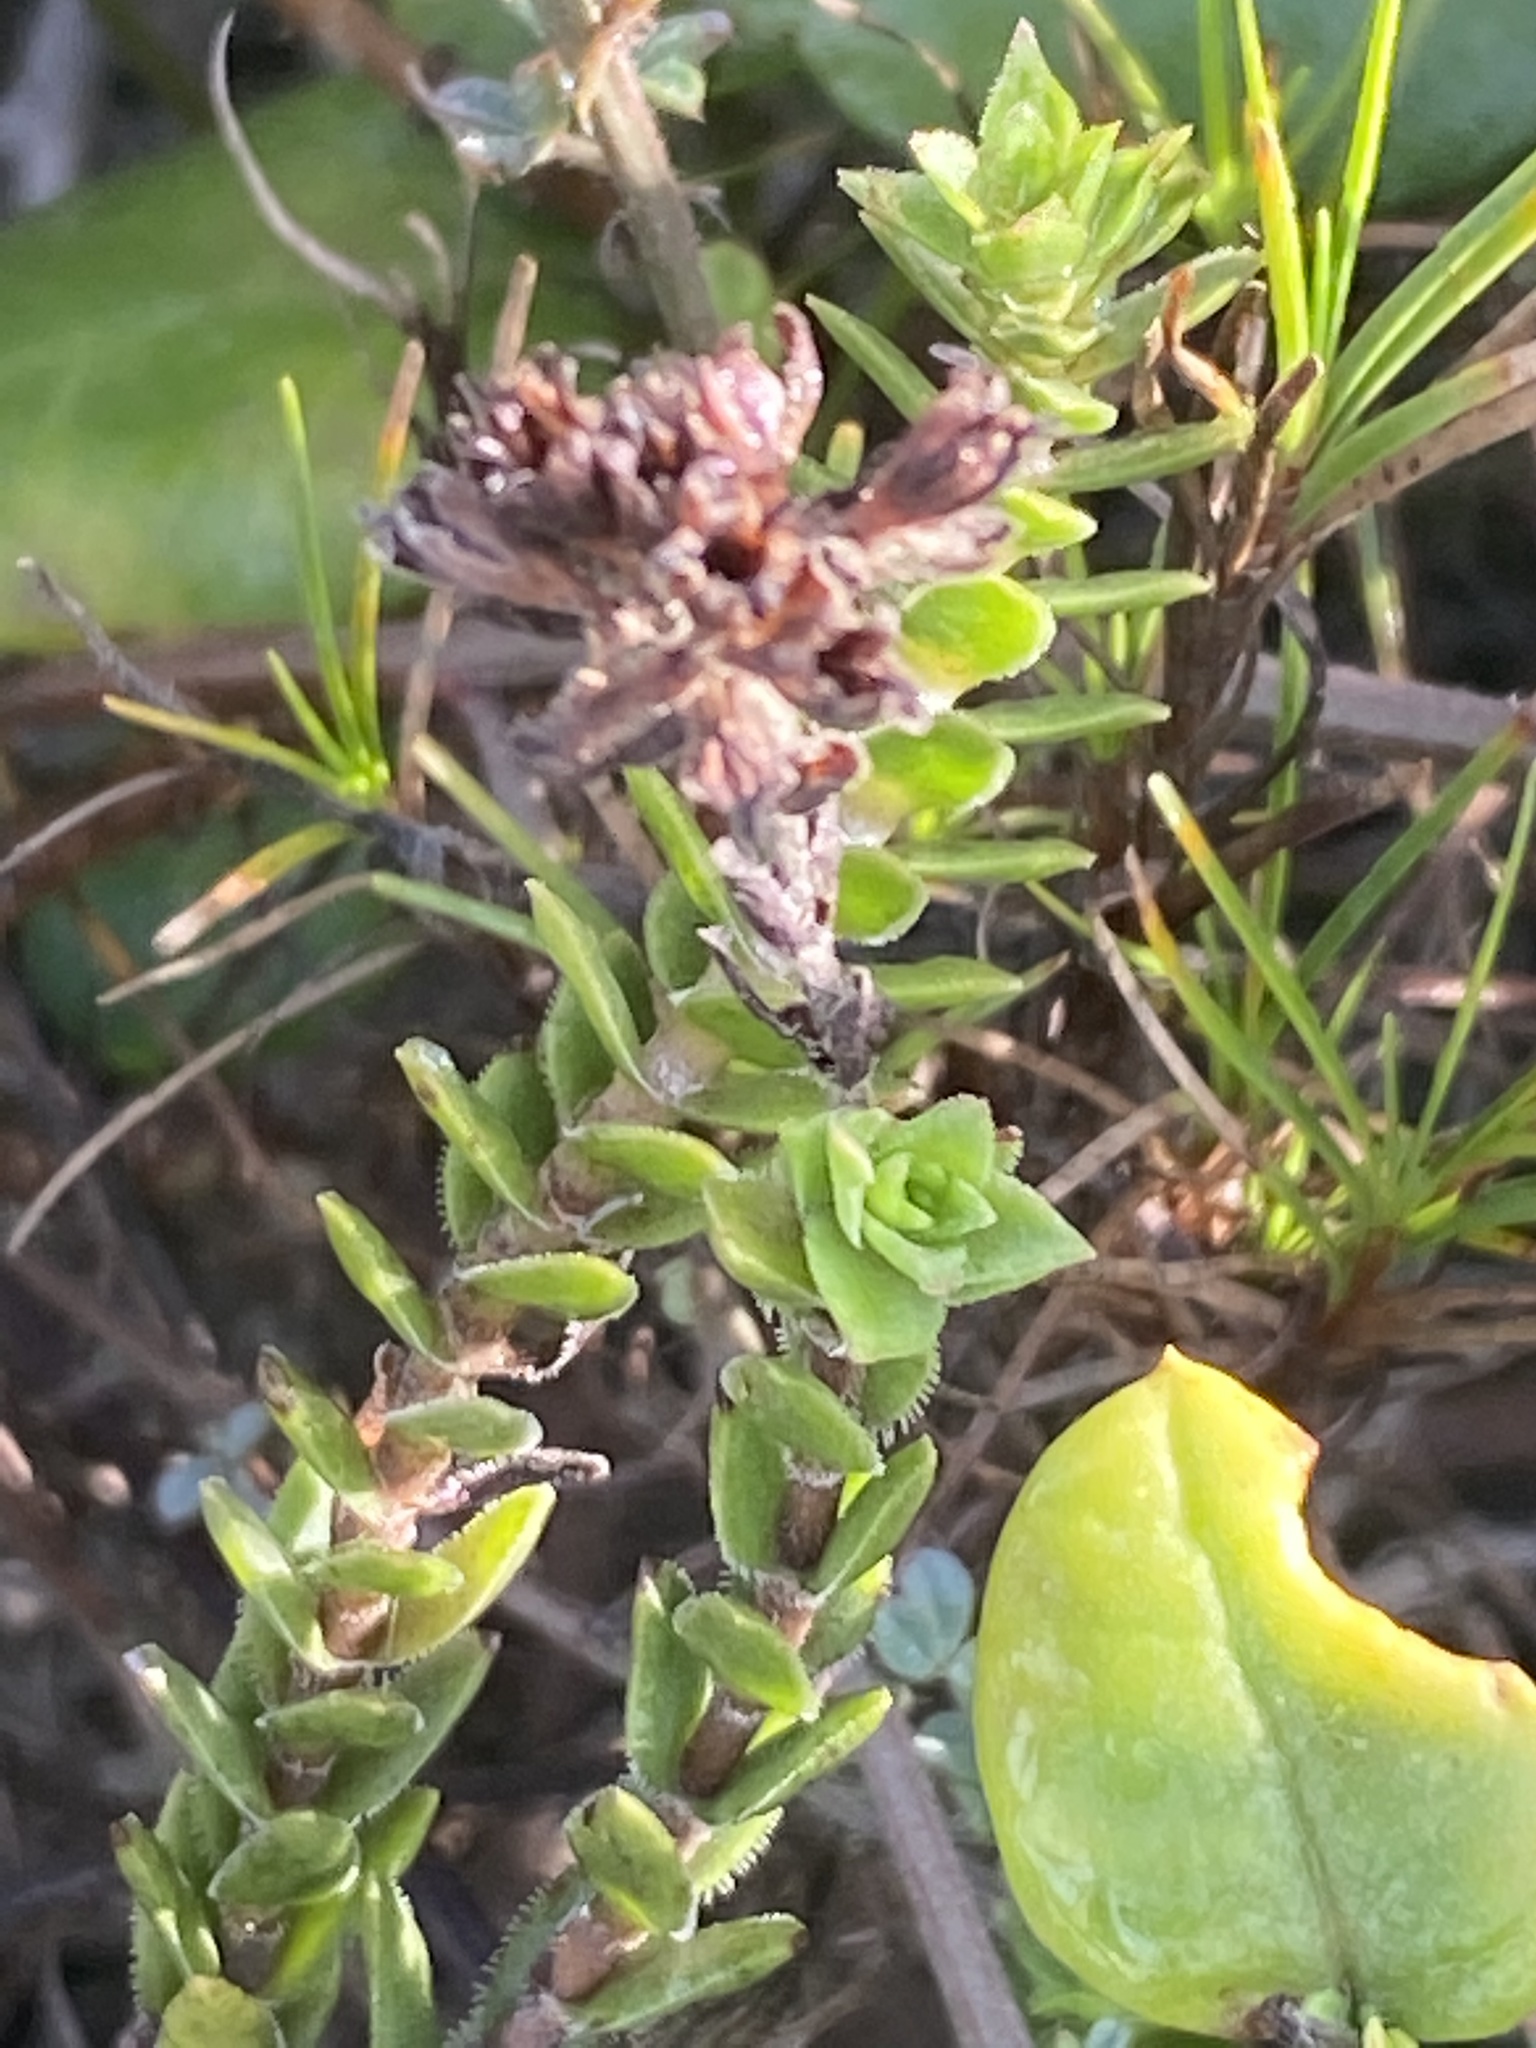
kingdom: Plantae
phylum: Tracheophyta
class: Magnoliopsida
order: Saxifragales
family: Crassulaceae
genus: Crassula
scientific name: Crassula subulata
